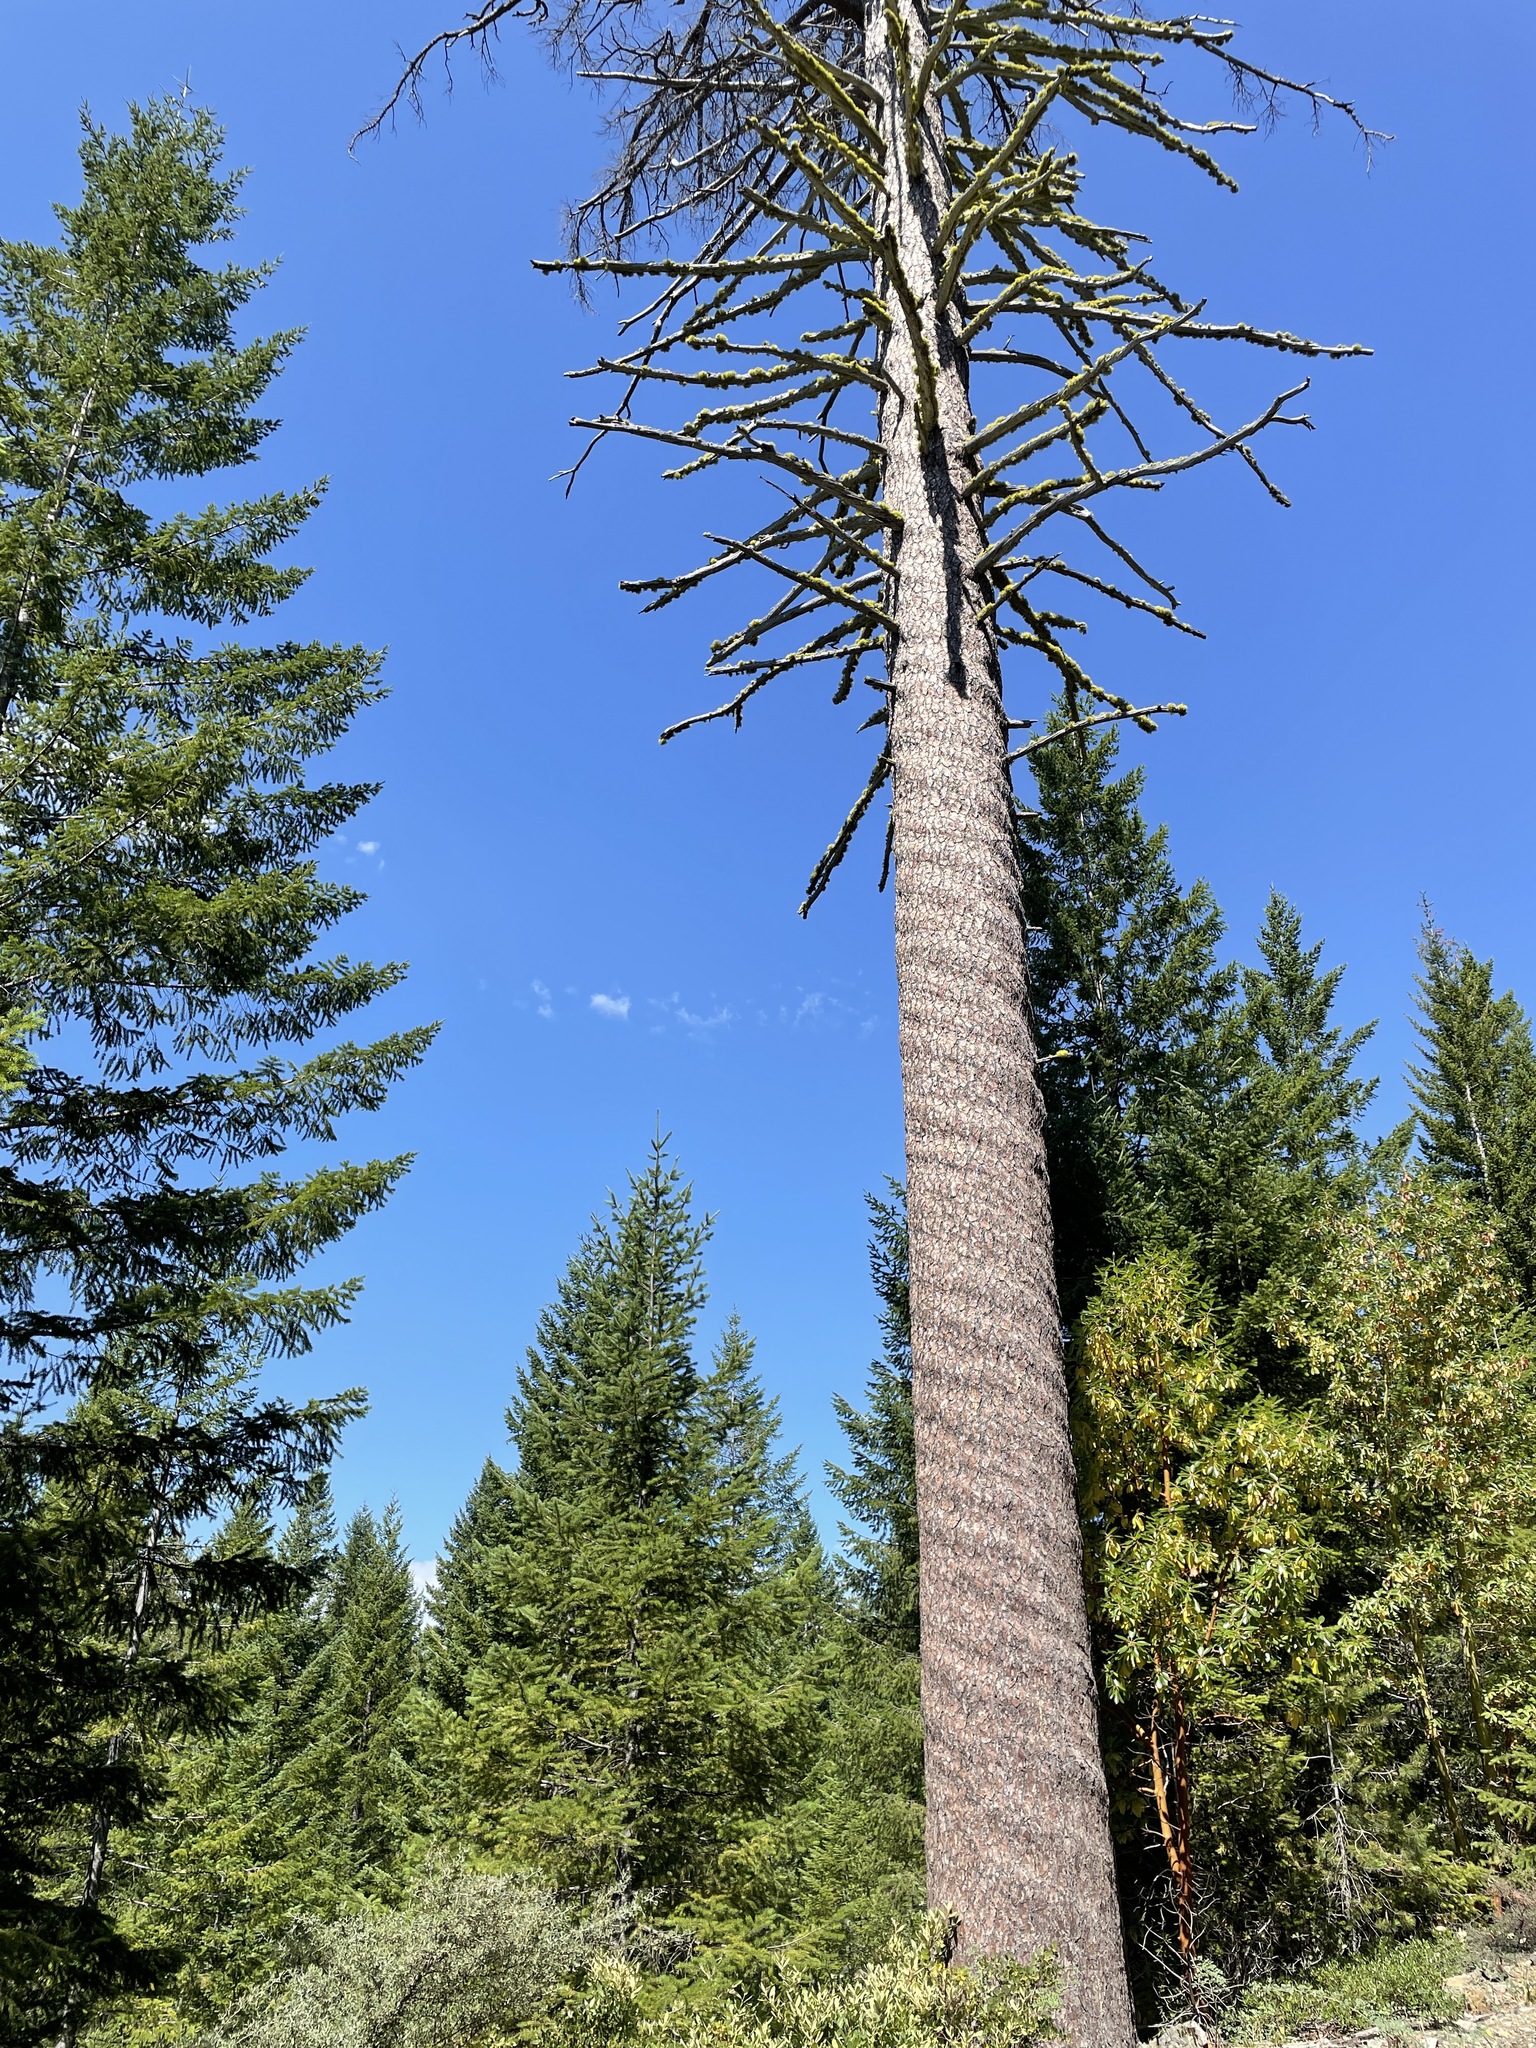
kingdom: Plantae
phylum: Tracheophyta
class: Pinopsida
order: Pinales
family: Pinaceae
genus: Pinus
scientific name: Pinus lambertiana
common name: Sugar pine
